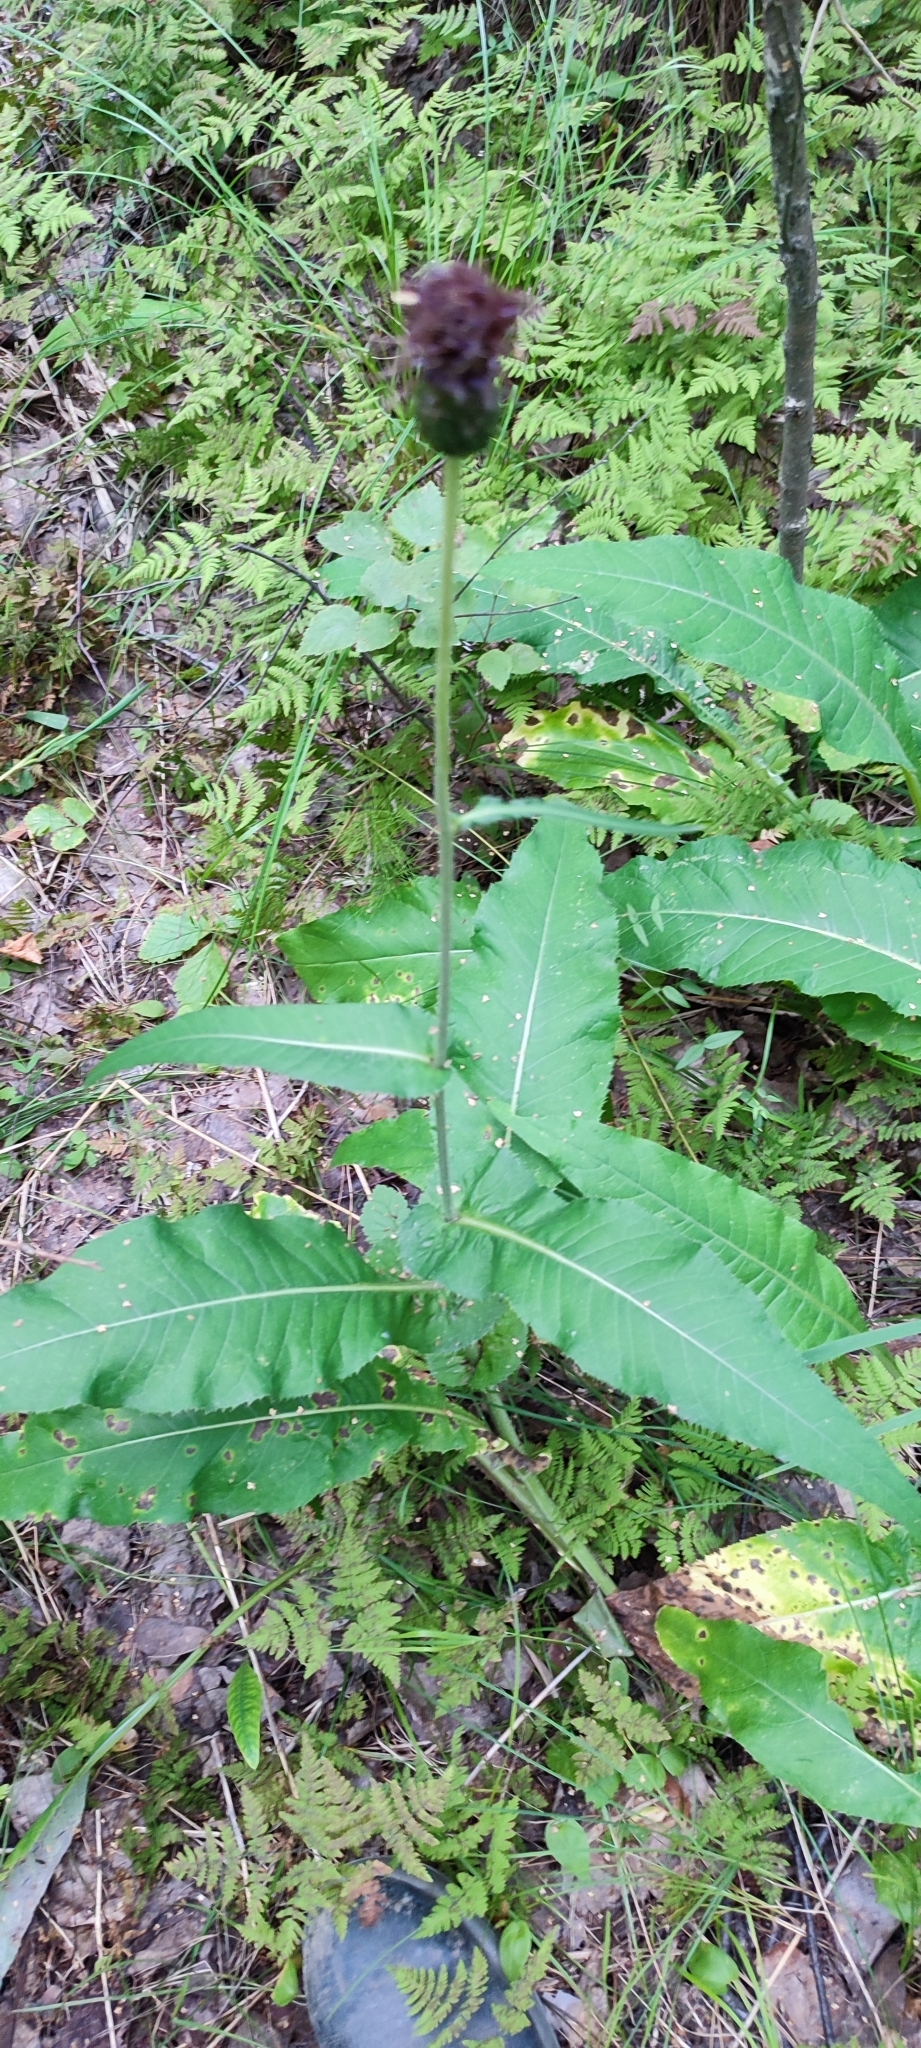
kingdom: Plantae
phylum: Tracheophyta
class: Magnoliopsida
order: Asterales
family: Asteraceae
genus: Cirsium
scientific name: Cirsium heterophyllum
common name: Melancholy thistle
